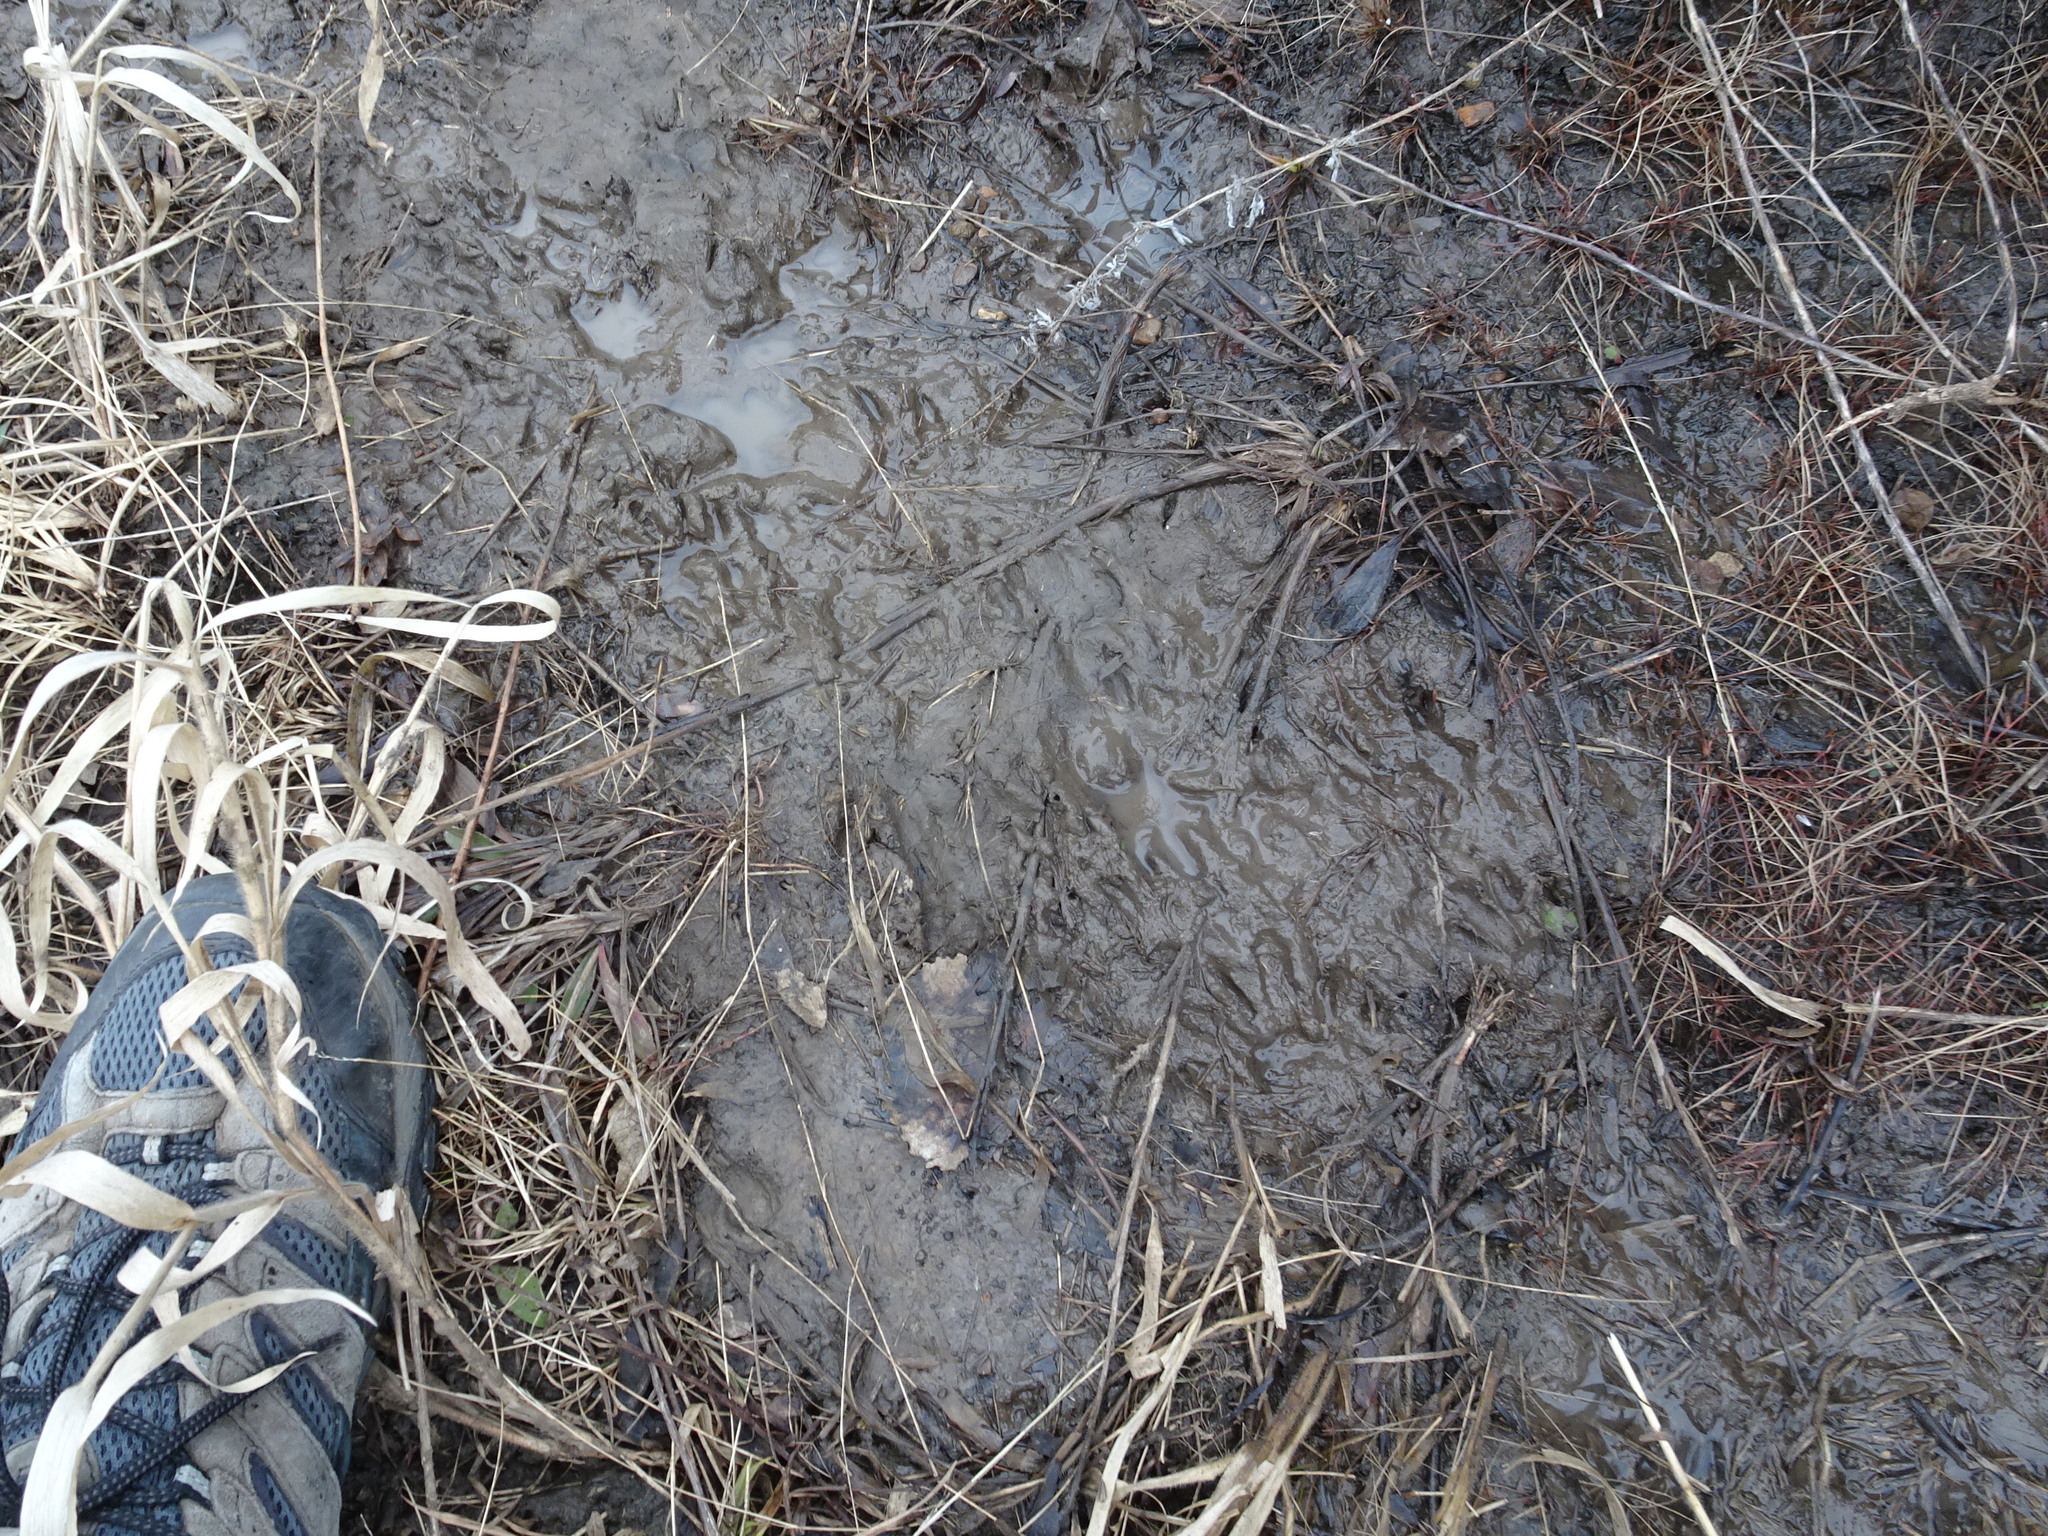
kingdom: Animalia
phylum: Chordata
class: Mammalia
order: Carnivora
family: Procyonidae
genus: Procyon
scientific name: Procyon lotor
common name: Raccoon
